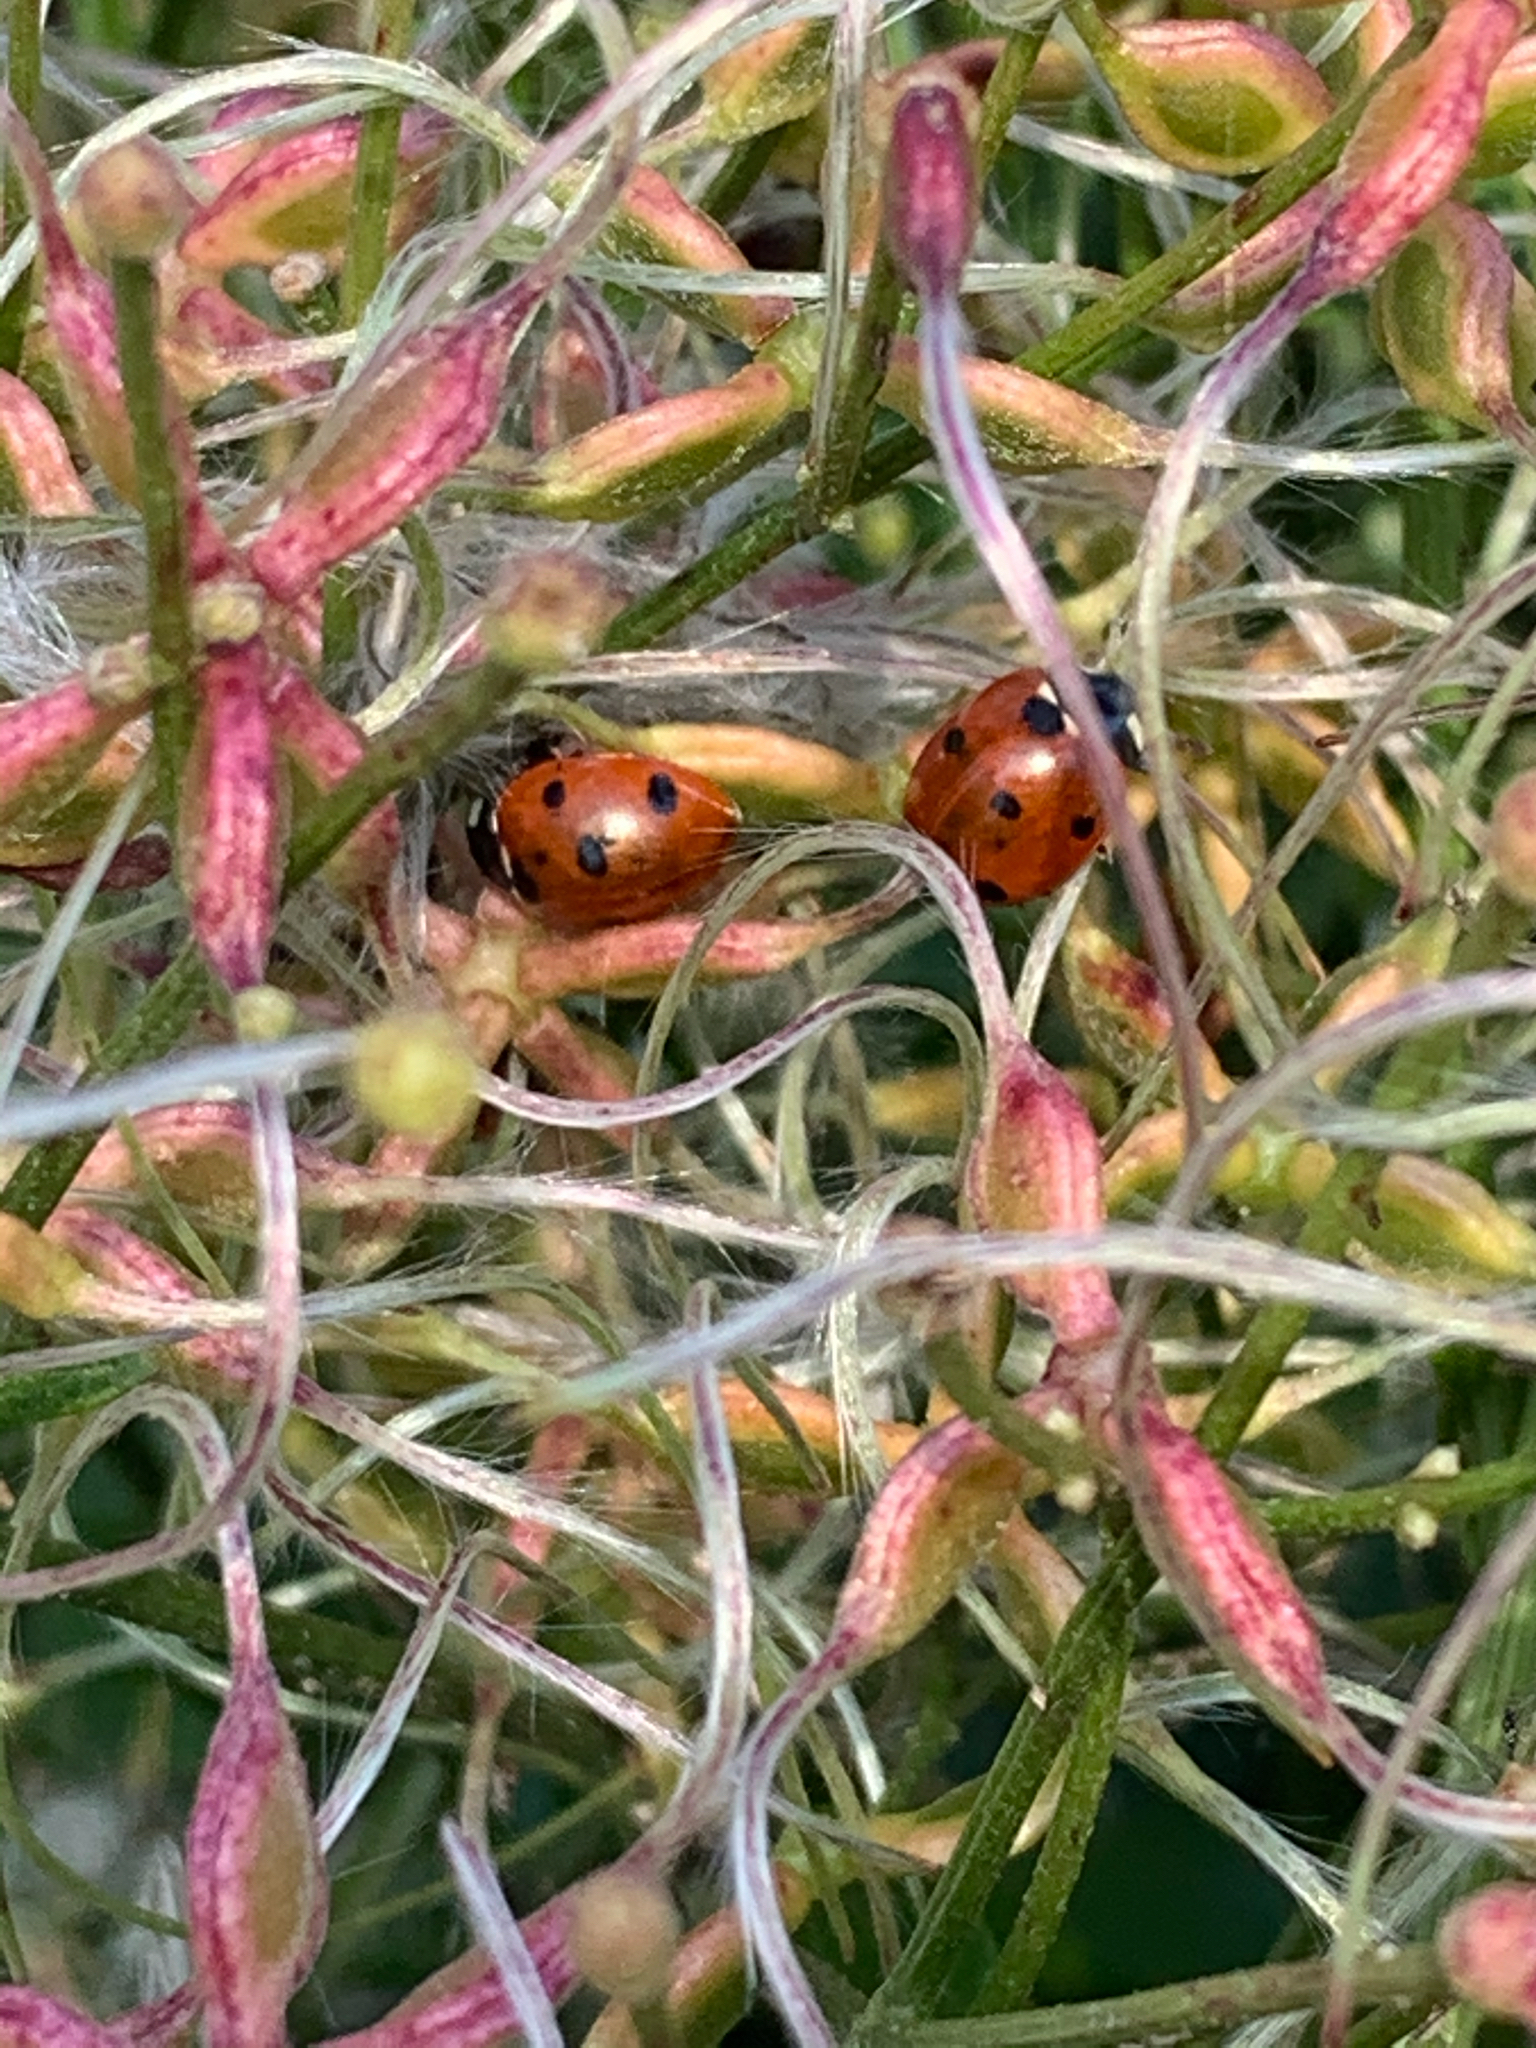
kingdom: Animalia
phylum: Arthropoda
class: Insecta
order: Coleoptera
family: Coccinellidae
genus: Coccinella
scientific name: Coccinella septempunctata
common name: Sevenspotted lady beetle
